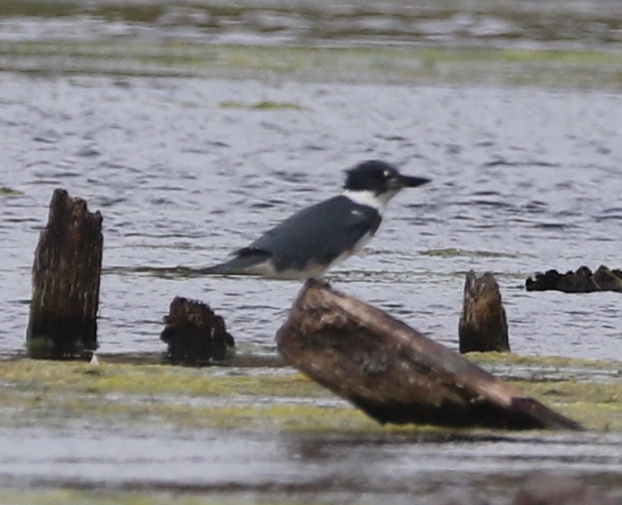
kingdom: Animalia
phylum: Chordata
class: Aves
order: Coraciiformes
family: Alcedinidae
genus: Megaceryle
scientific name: Megaceryle alcyon
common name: Belted kingfisher
